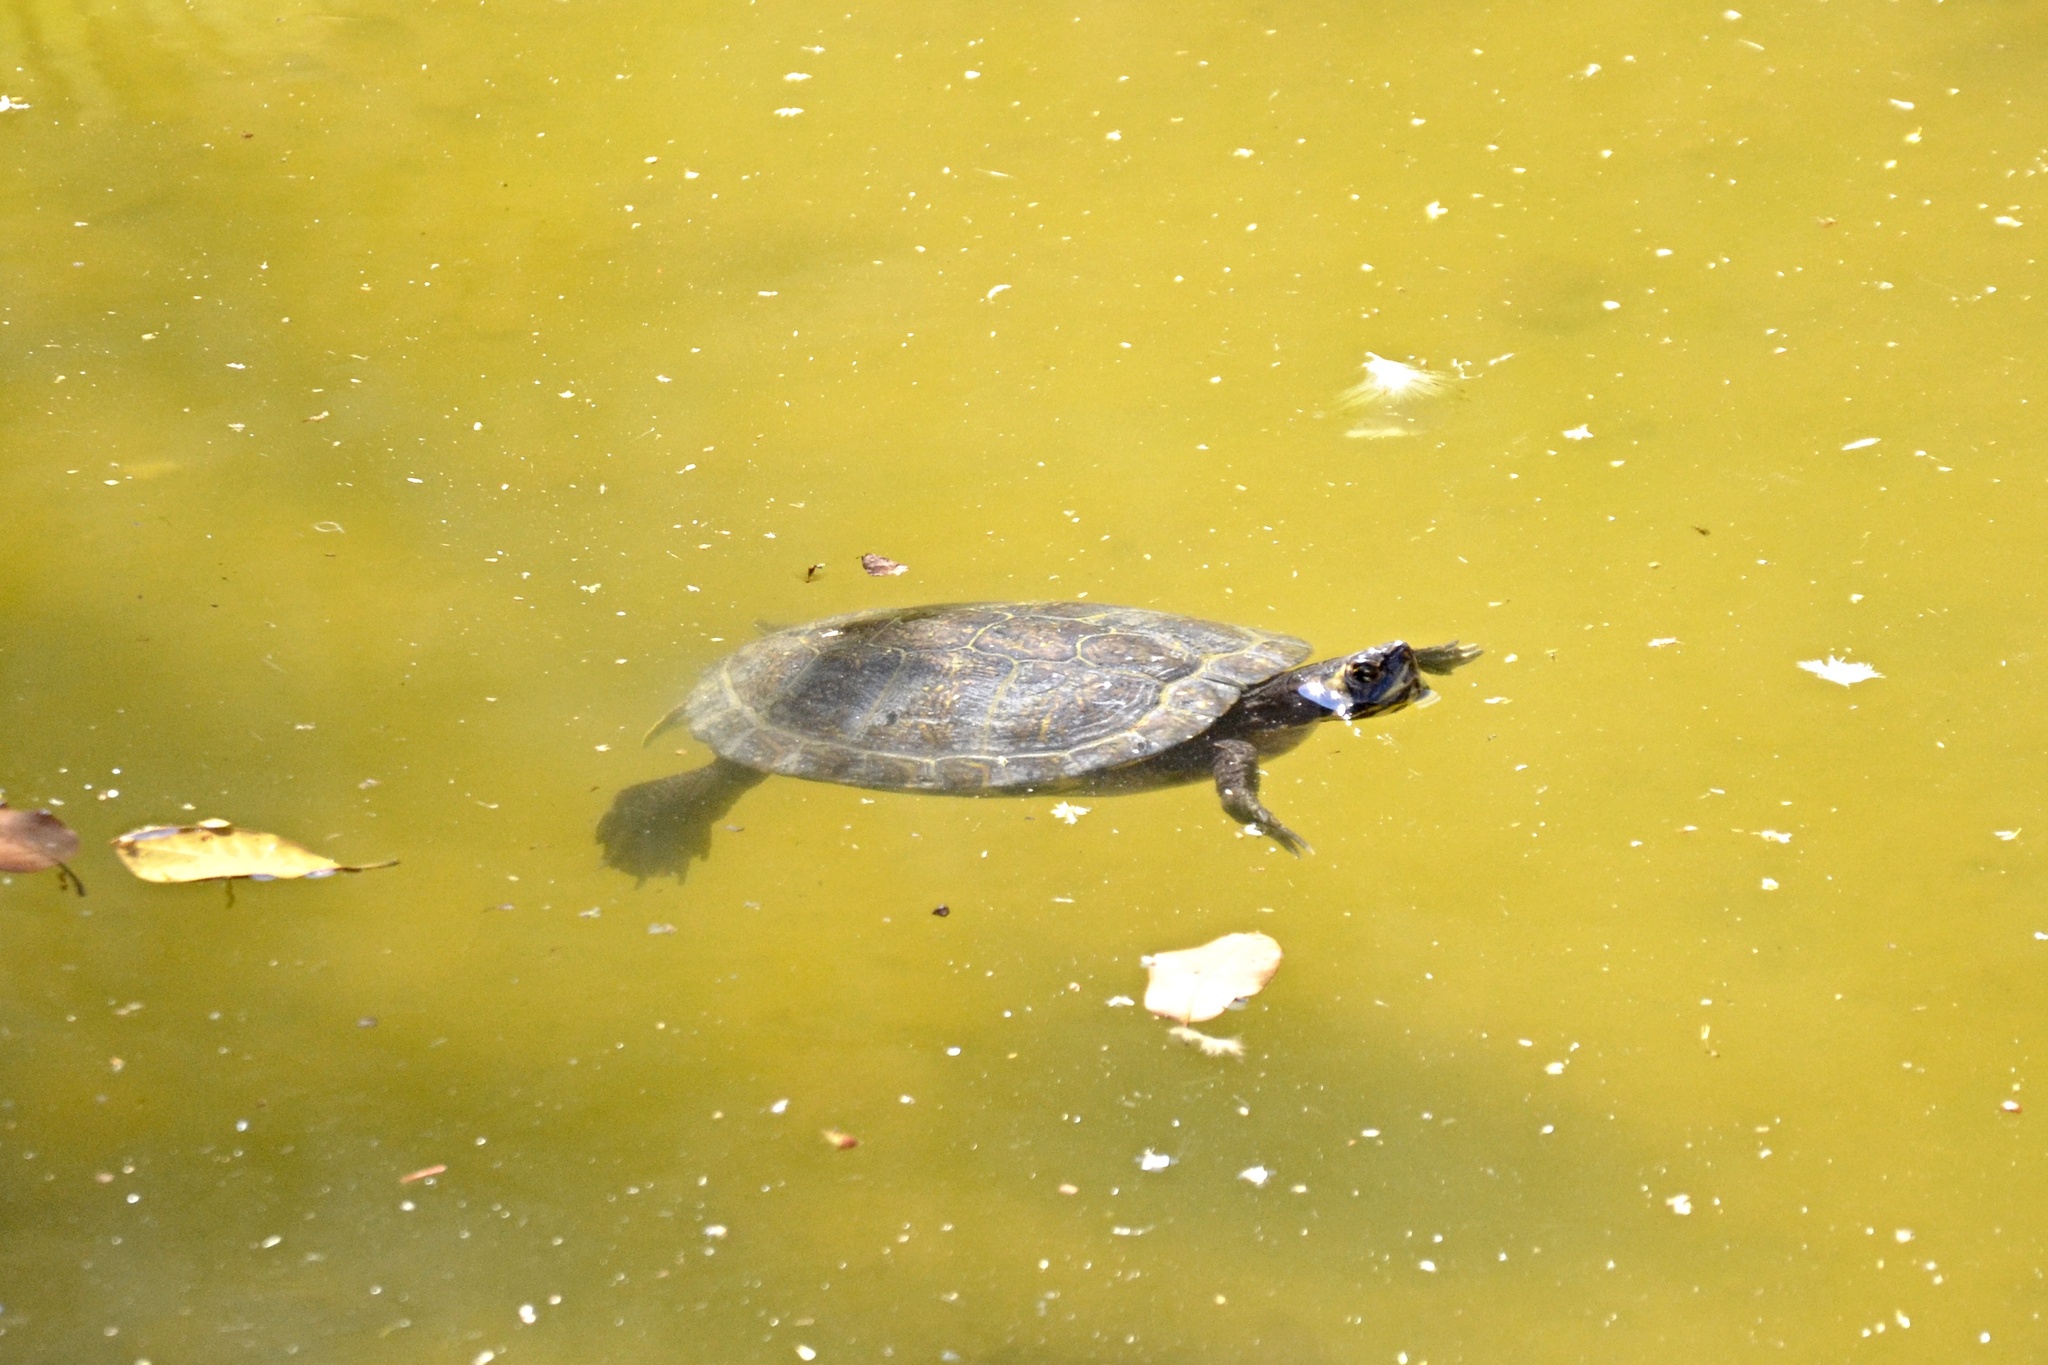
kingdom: Animalia
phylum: Chordata
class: Testudines
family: Emydidae
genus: Trachemys
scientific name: Trachemys scripta
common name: Slider
